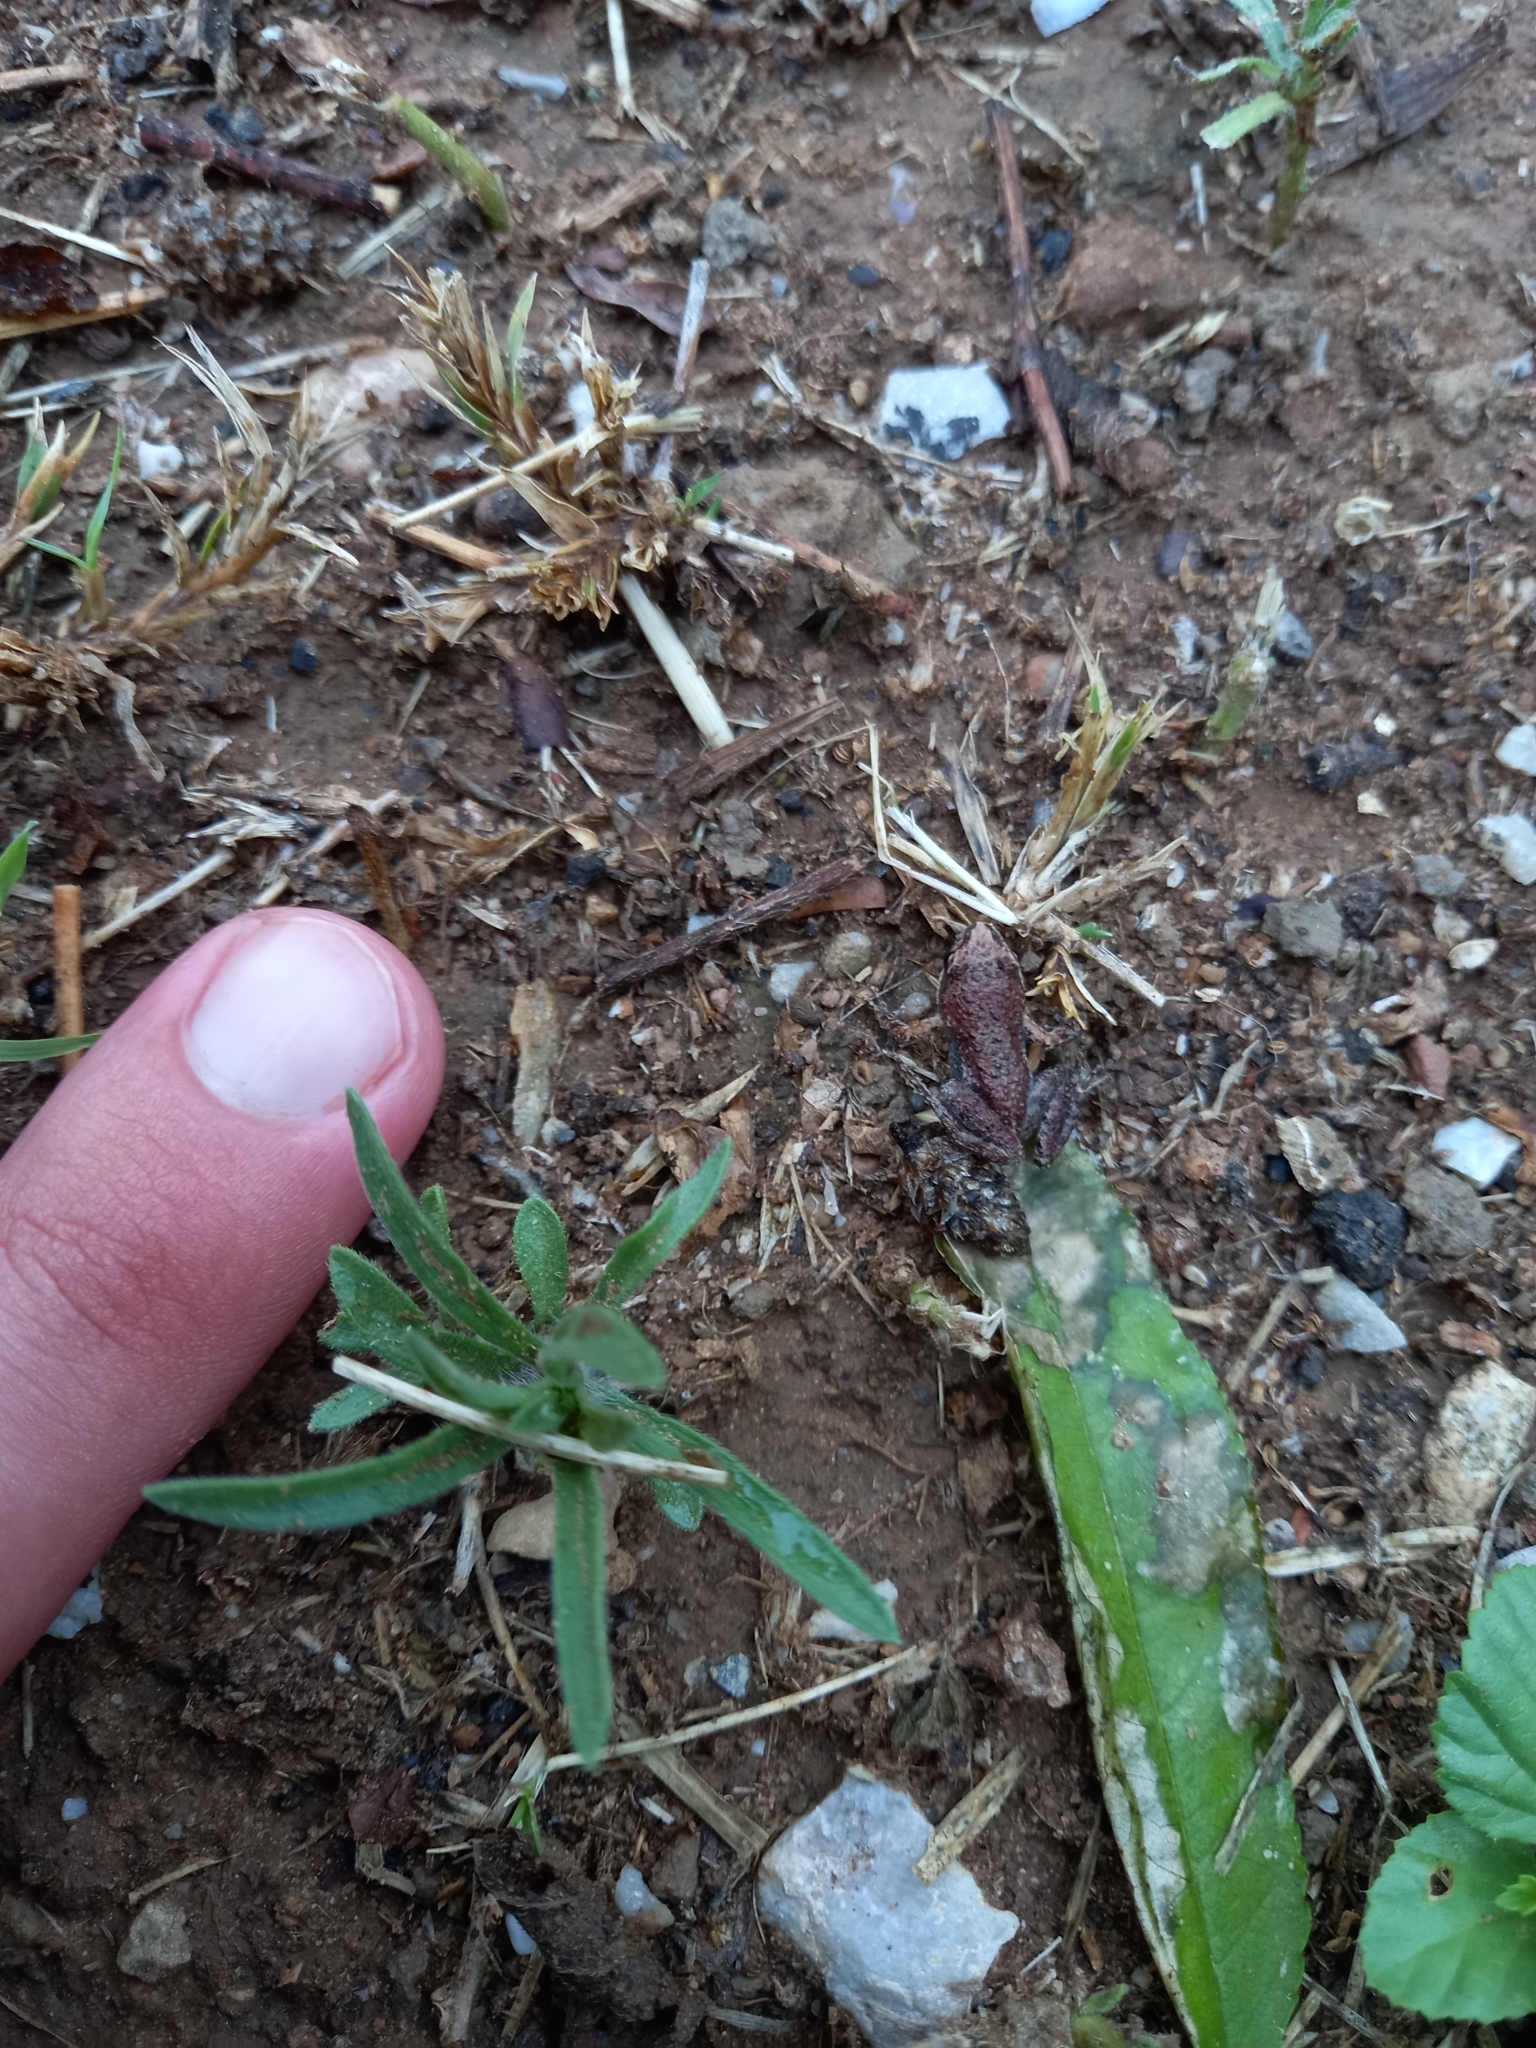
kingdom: Animalia
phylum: Chordata
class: Amphibia
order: Anura
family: Pyxicephalidae
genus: Cacosternum
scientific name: Cacosternum boettgeri
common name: Boettger's frog
